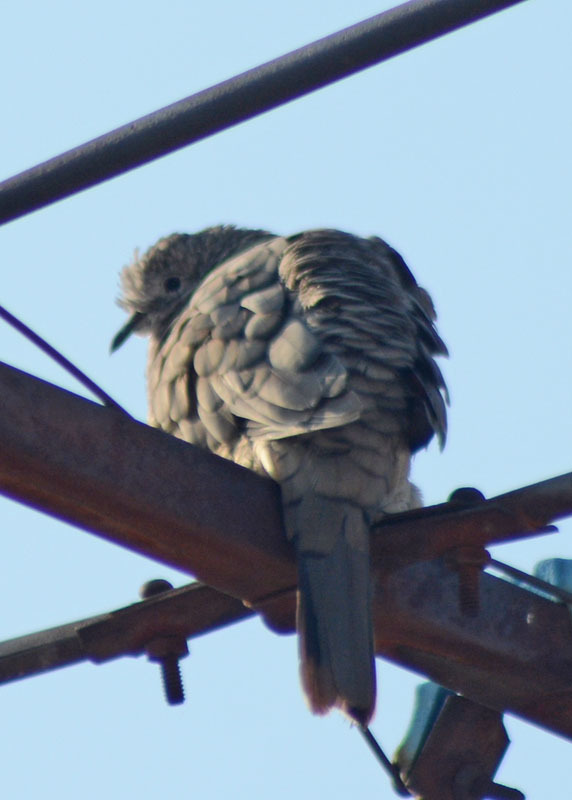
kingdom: Animalia
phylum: Chordata
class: Aves
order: Columbiformes
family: Columbidae
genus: Columbina
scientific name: Columbina inca
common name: Inca dove
